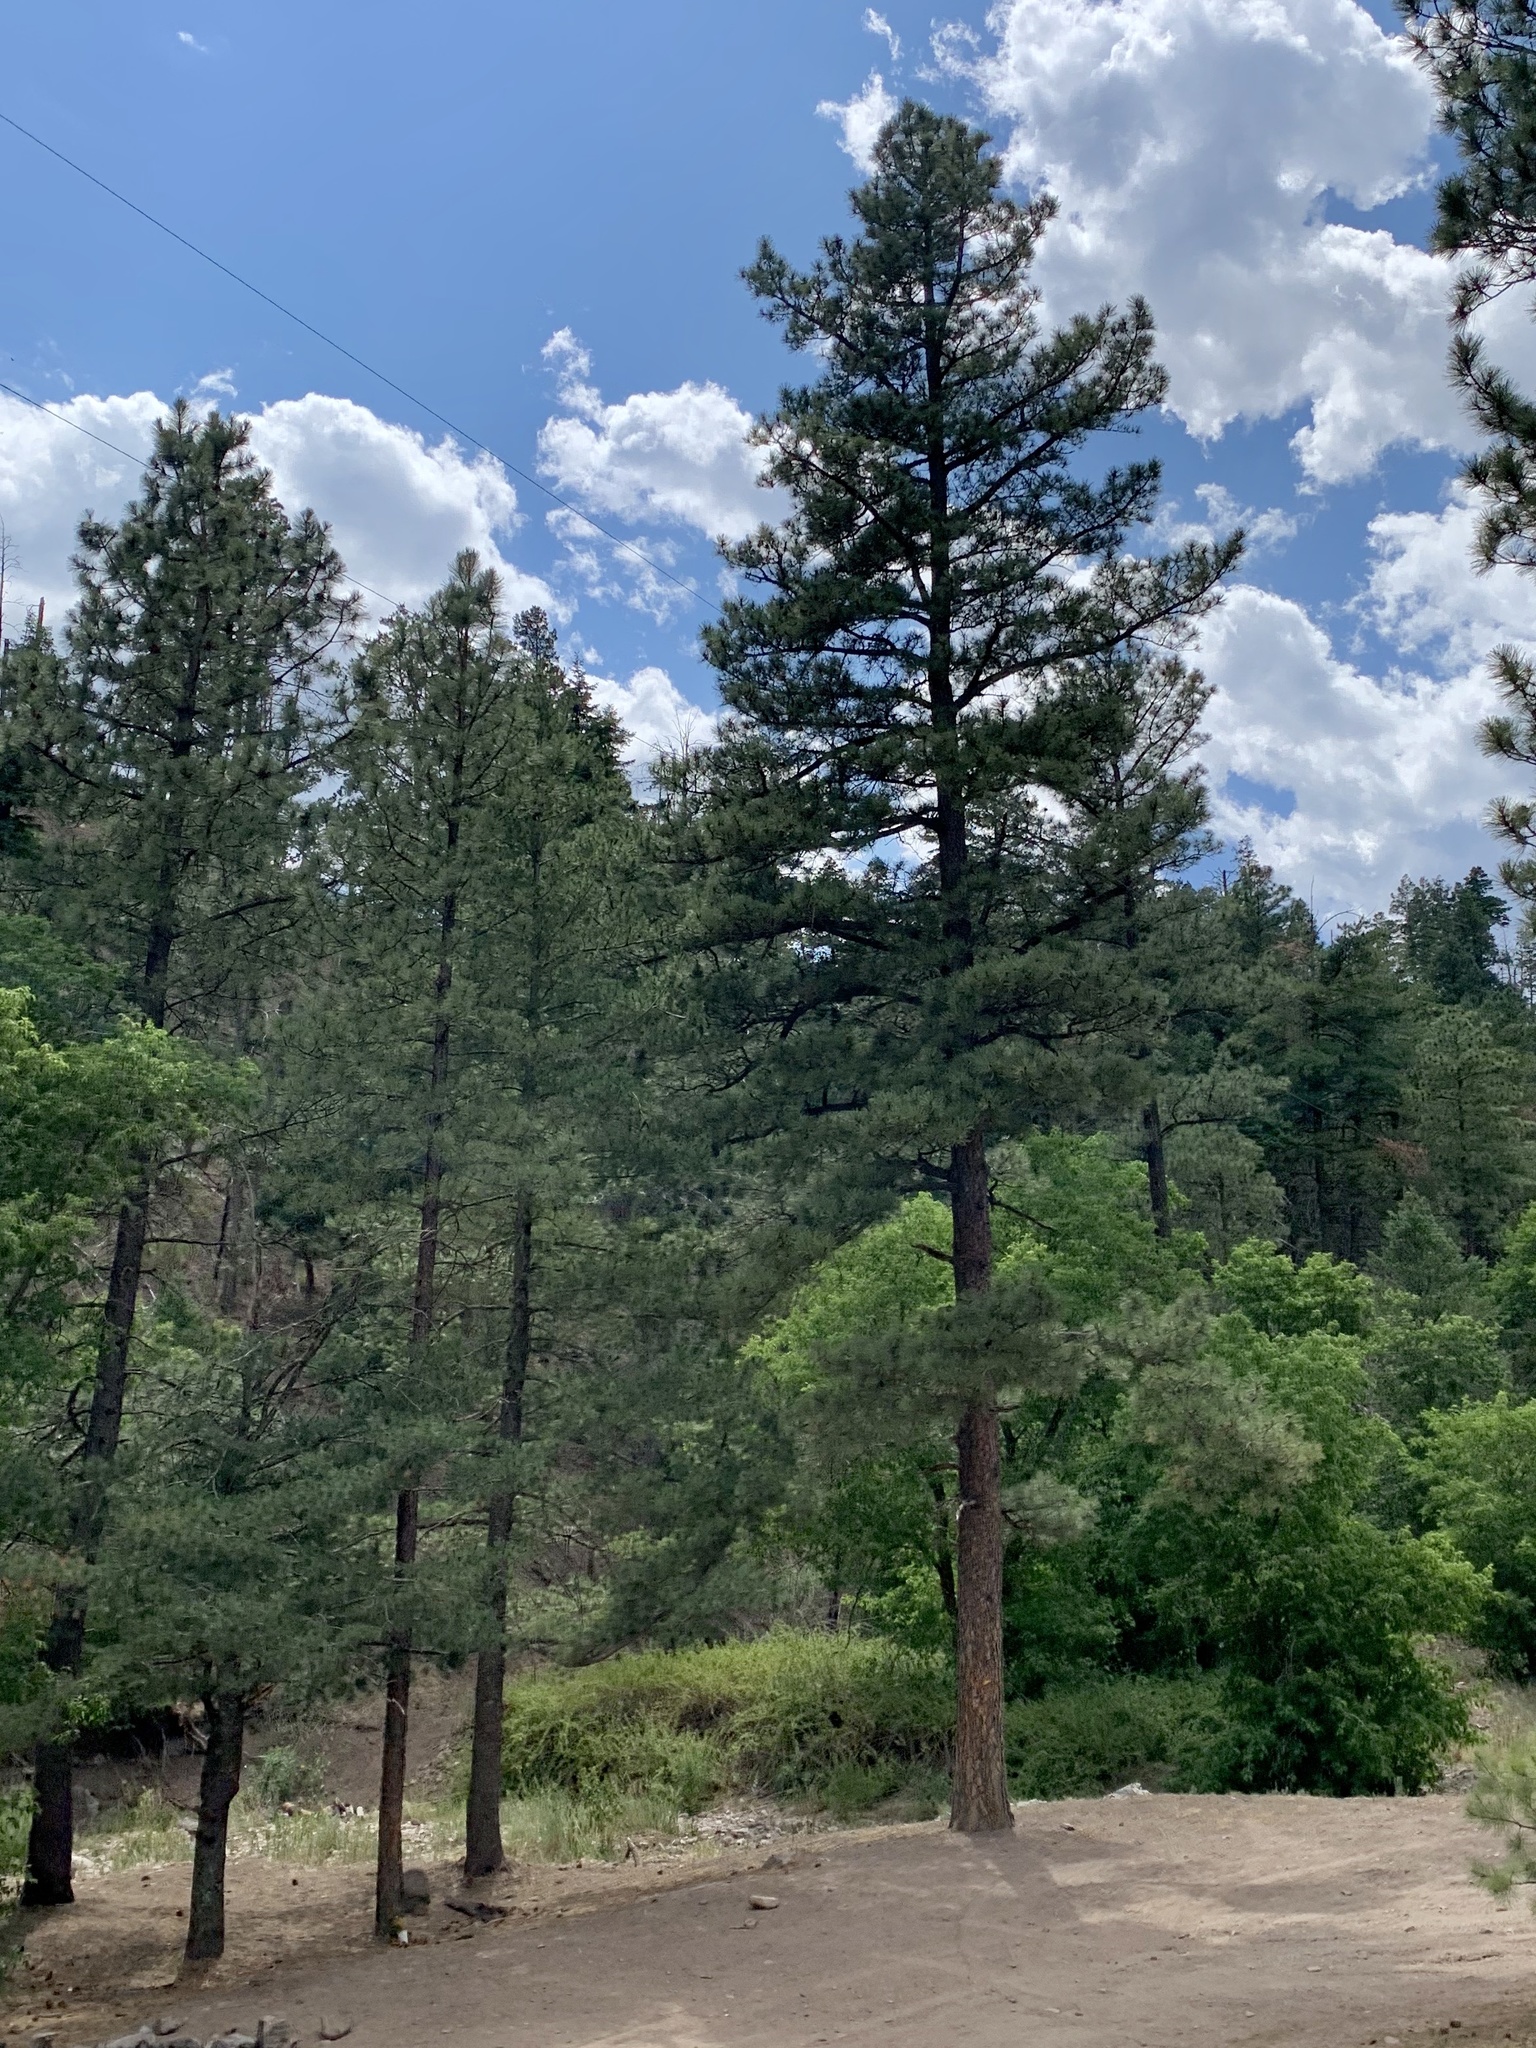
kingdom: Plantae
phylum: Tracheophyta
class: Pinopsida
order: Pinales
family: Pinaceae
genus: Pinus
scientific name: Pinus ponderosa
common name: Western yellow-pine
